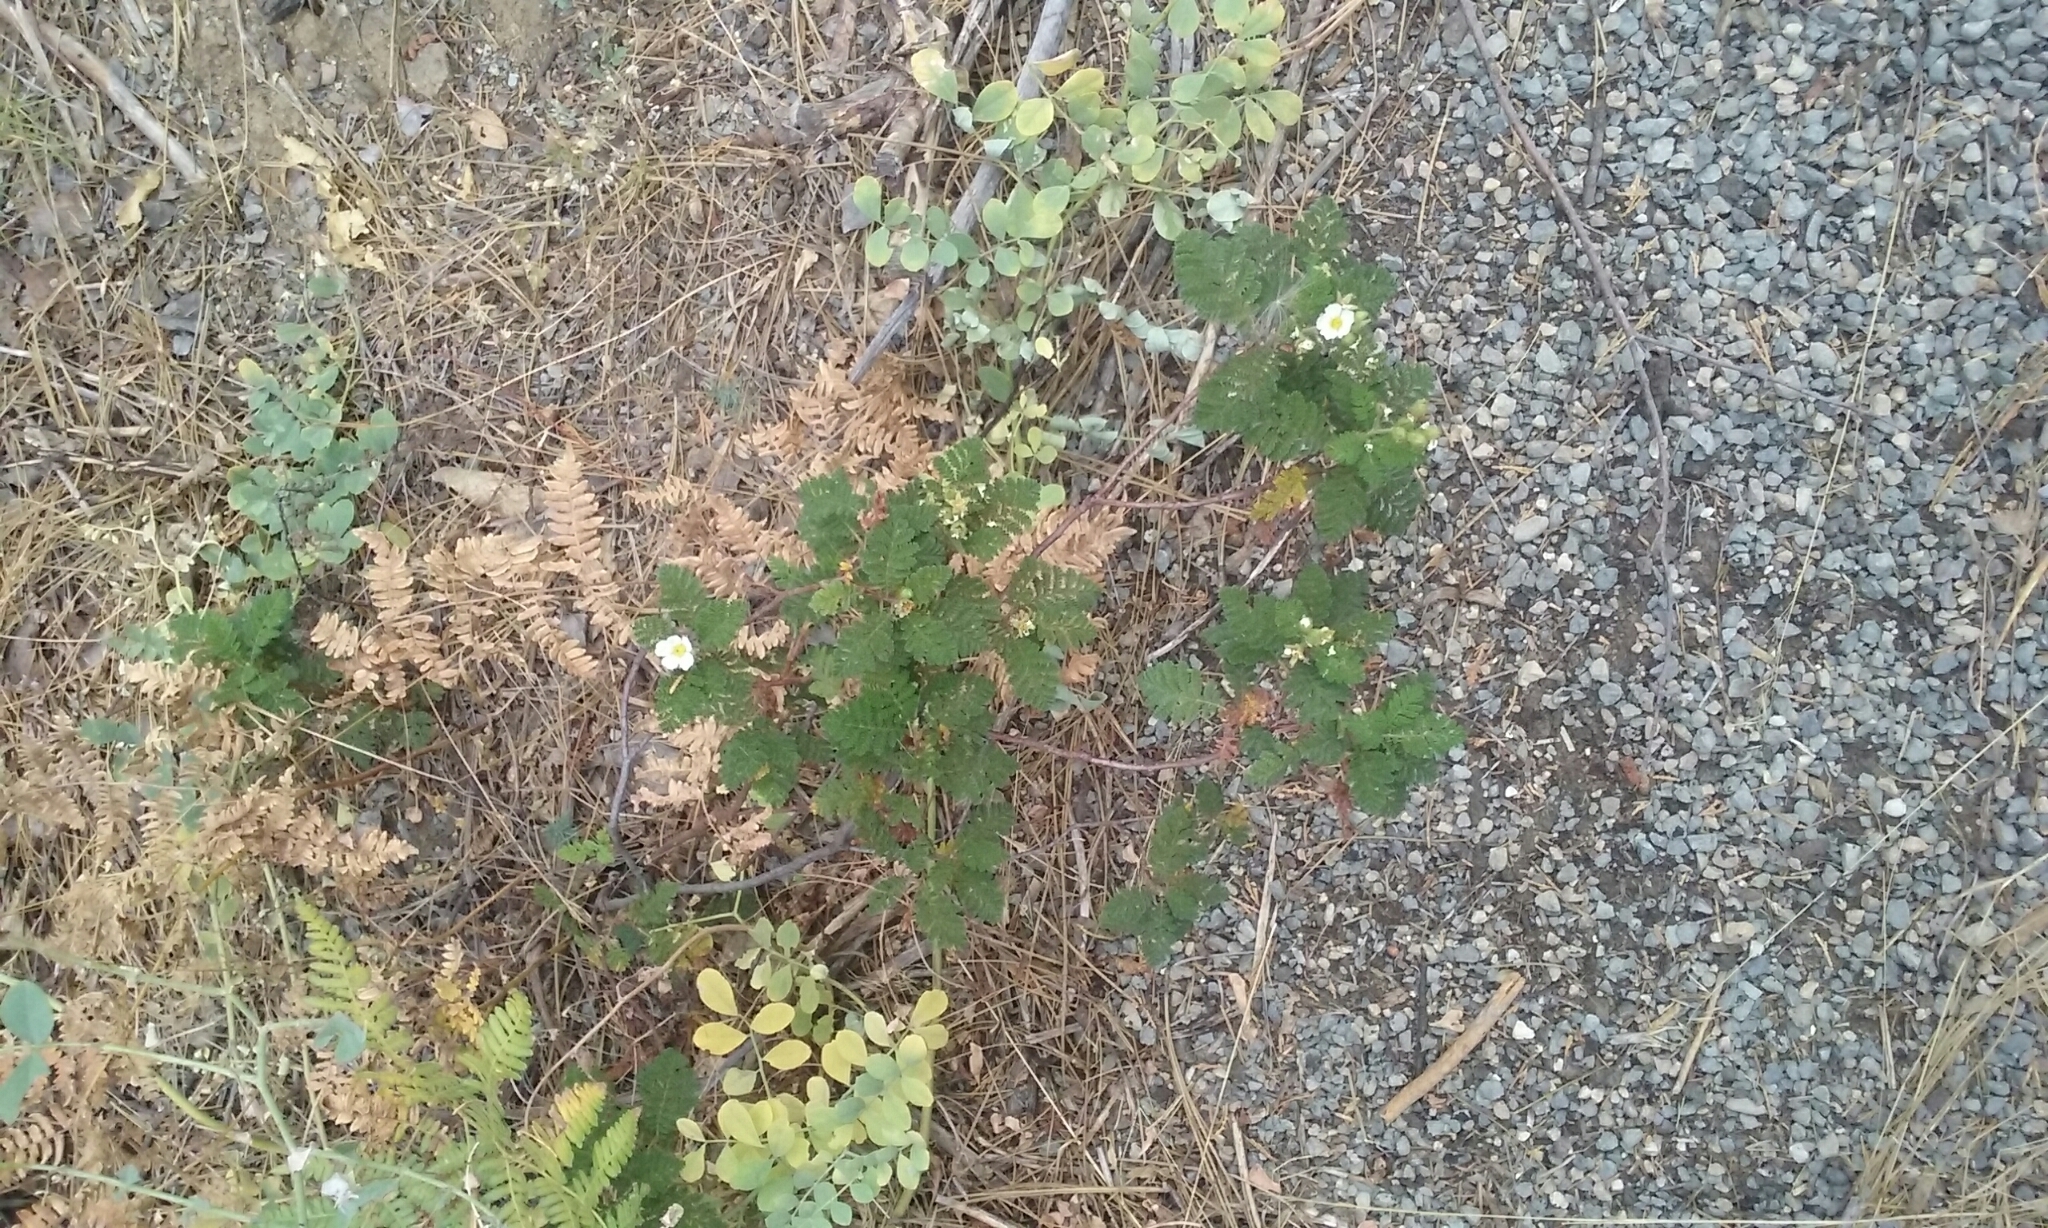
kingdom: Plantae
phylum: Tracheophyta
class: Magnoliopsida
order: Rosales
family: Rosaceae
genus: Chamaebatia
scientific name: Chamaebatia foliolosa
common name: Mountain misery
